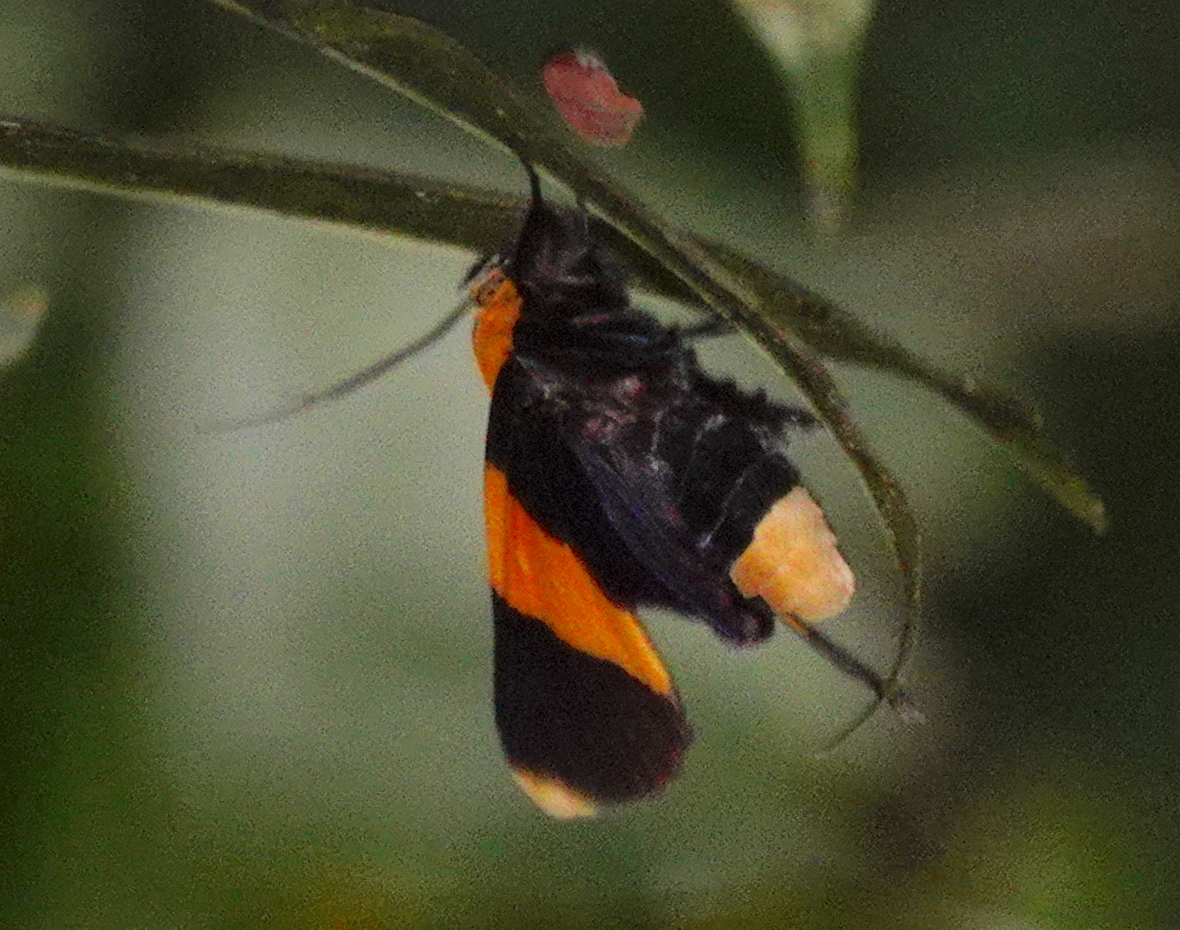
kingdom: Animalia
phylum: Arthropoda
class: Insecta
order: Lepidoptera
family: Erebidae
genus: Buzara
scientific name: Buzara chrysomela
